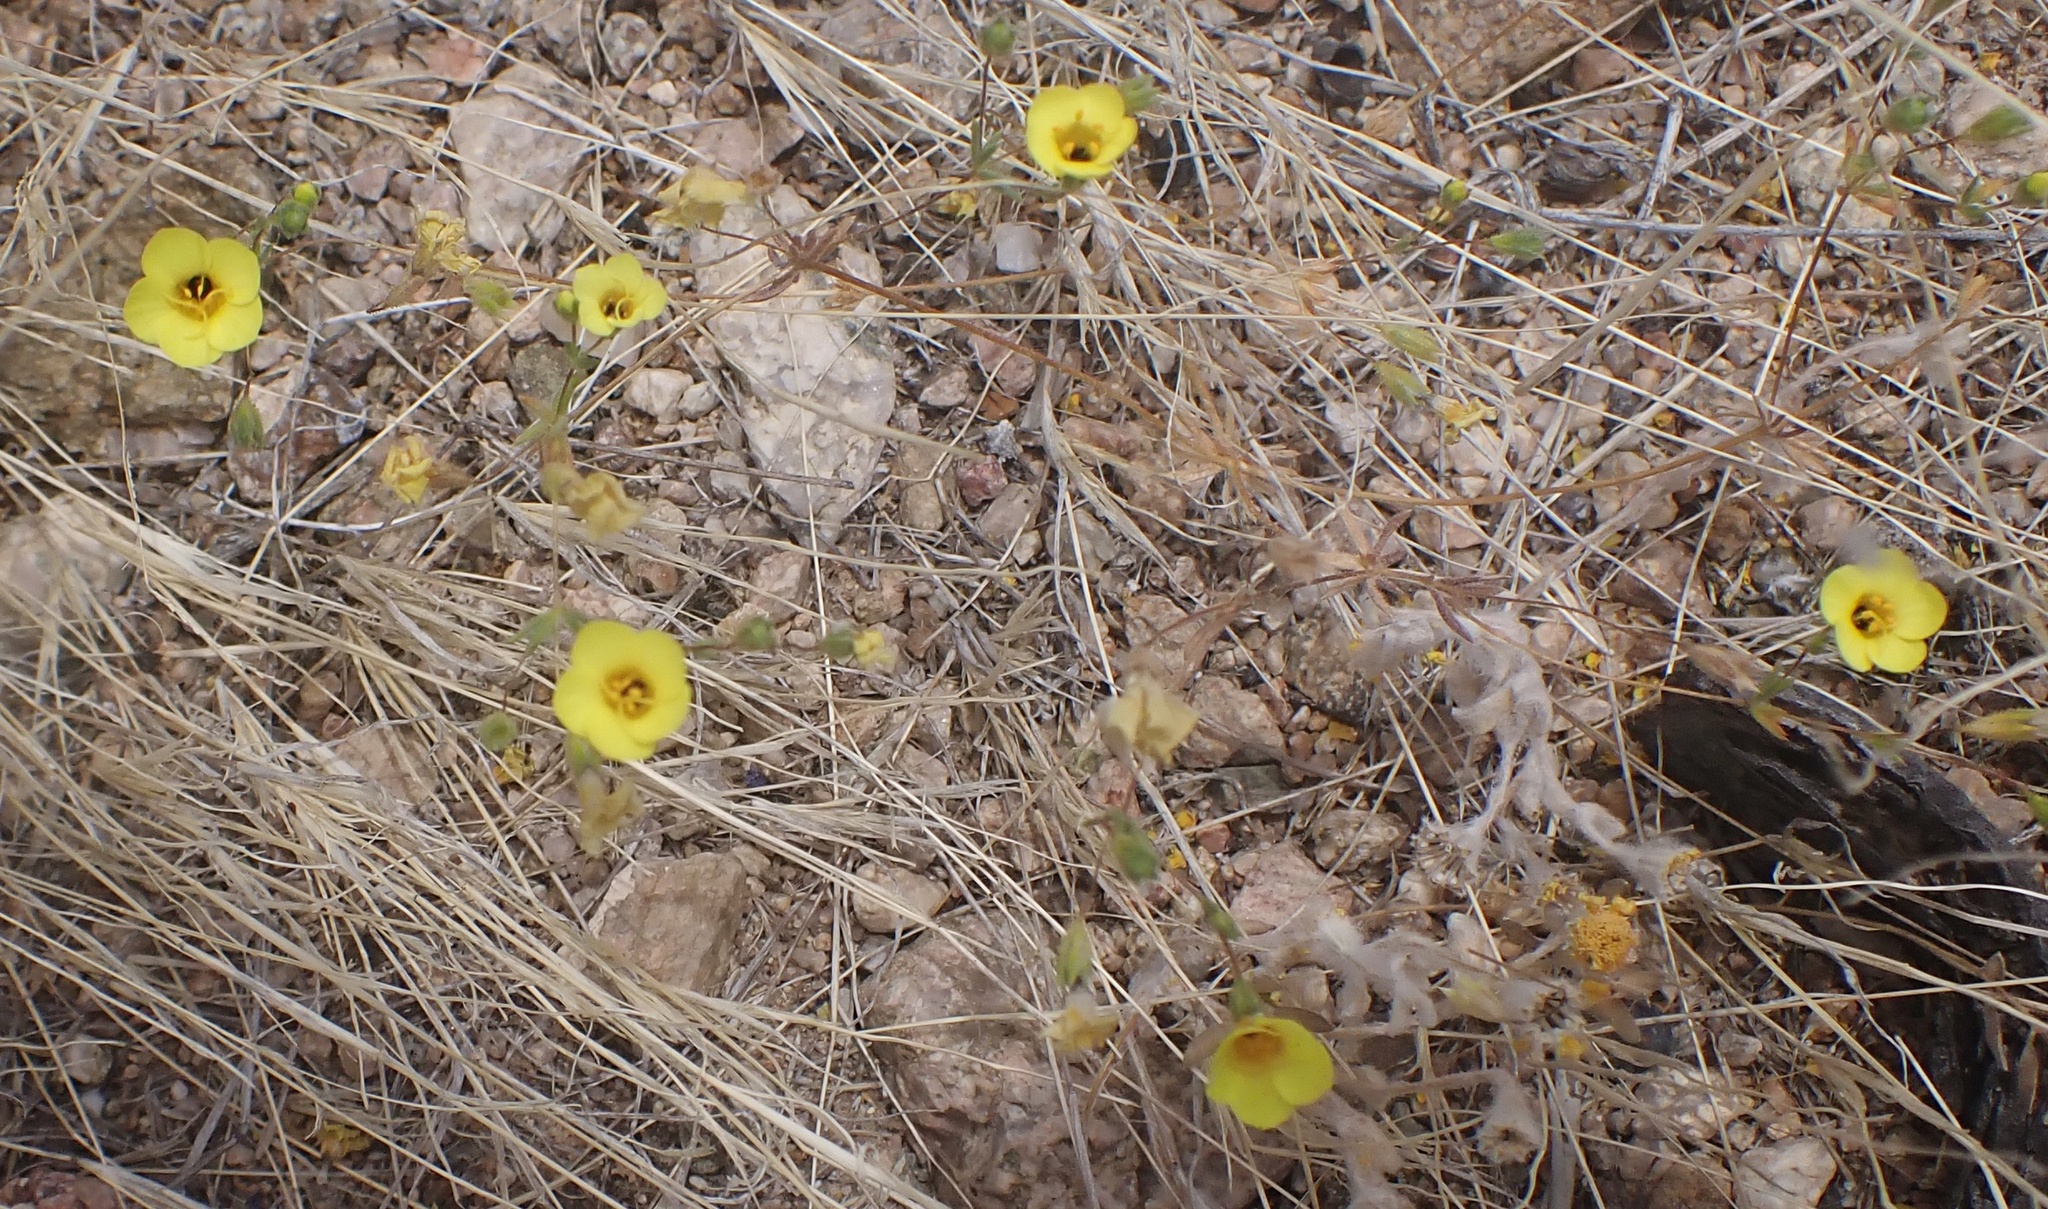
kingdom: Plantae
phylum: Tracheophyta
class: Magnoliopsida
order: Ericales
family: Polemoniaceae
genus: Leptosiphon
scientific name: Leptosiphon chrysanthus
